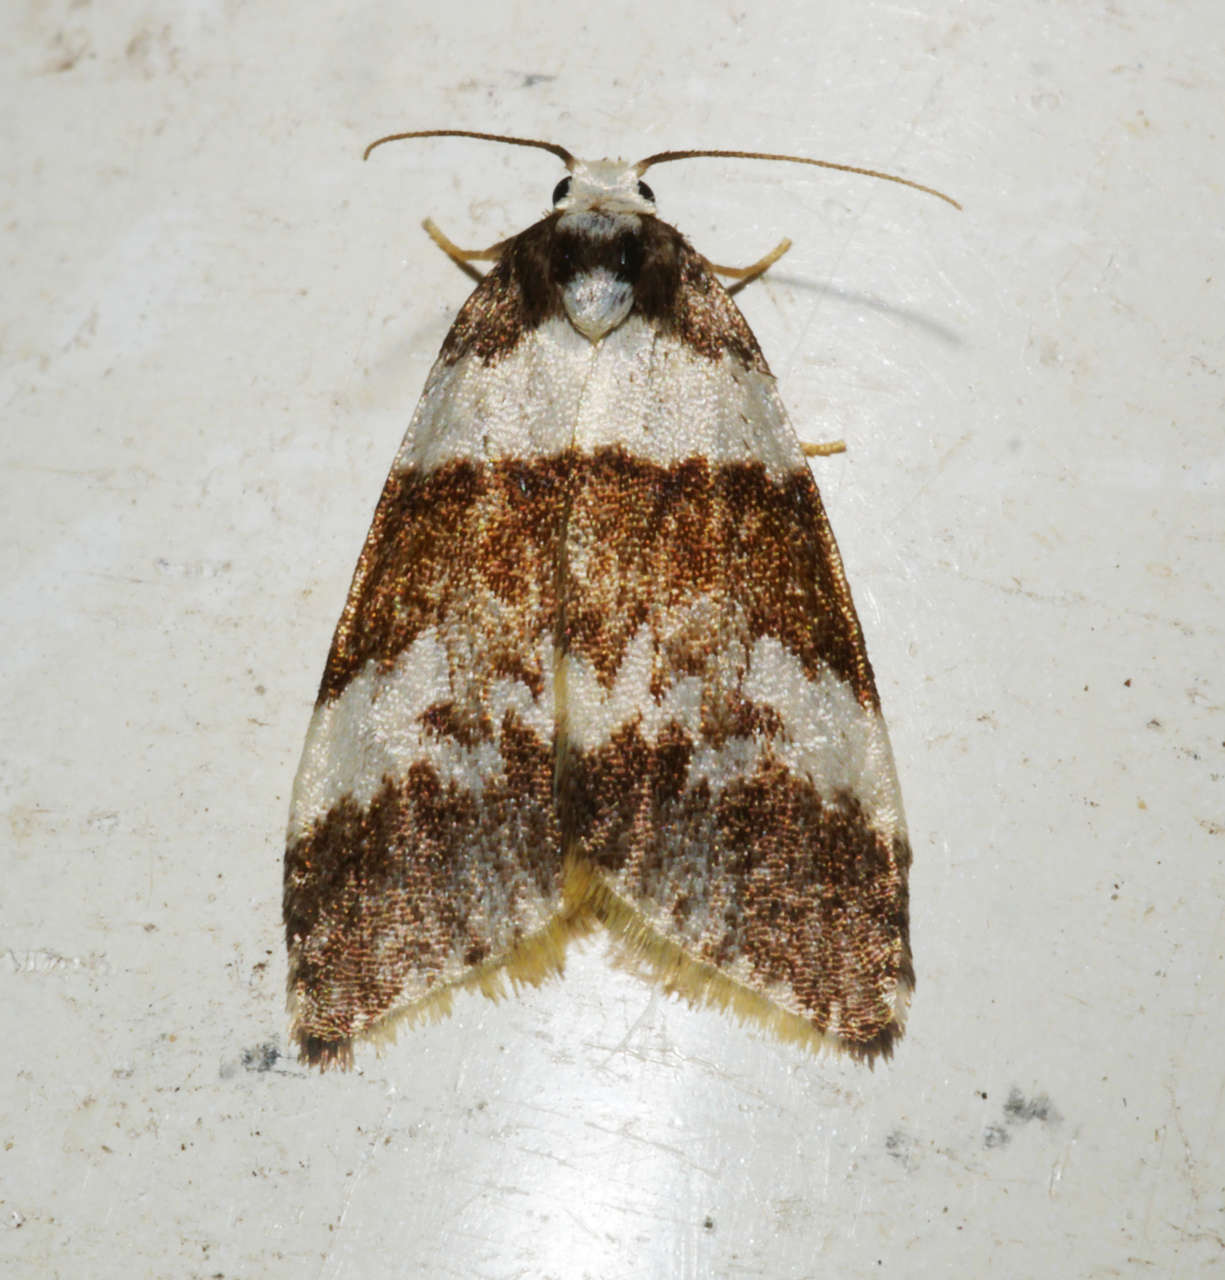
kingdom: Animalia
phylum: Arthropoda
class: Insecta
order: Lepidoptera
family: Erebidae
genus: Halone
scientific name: Halone sejuncta
